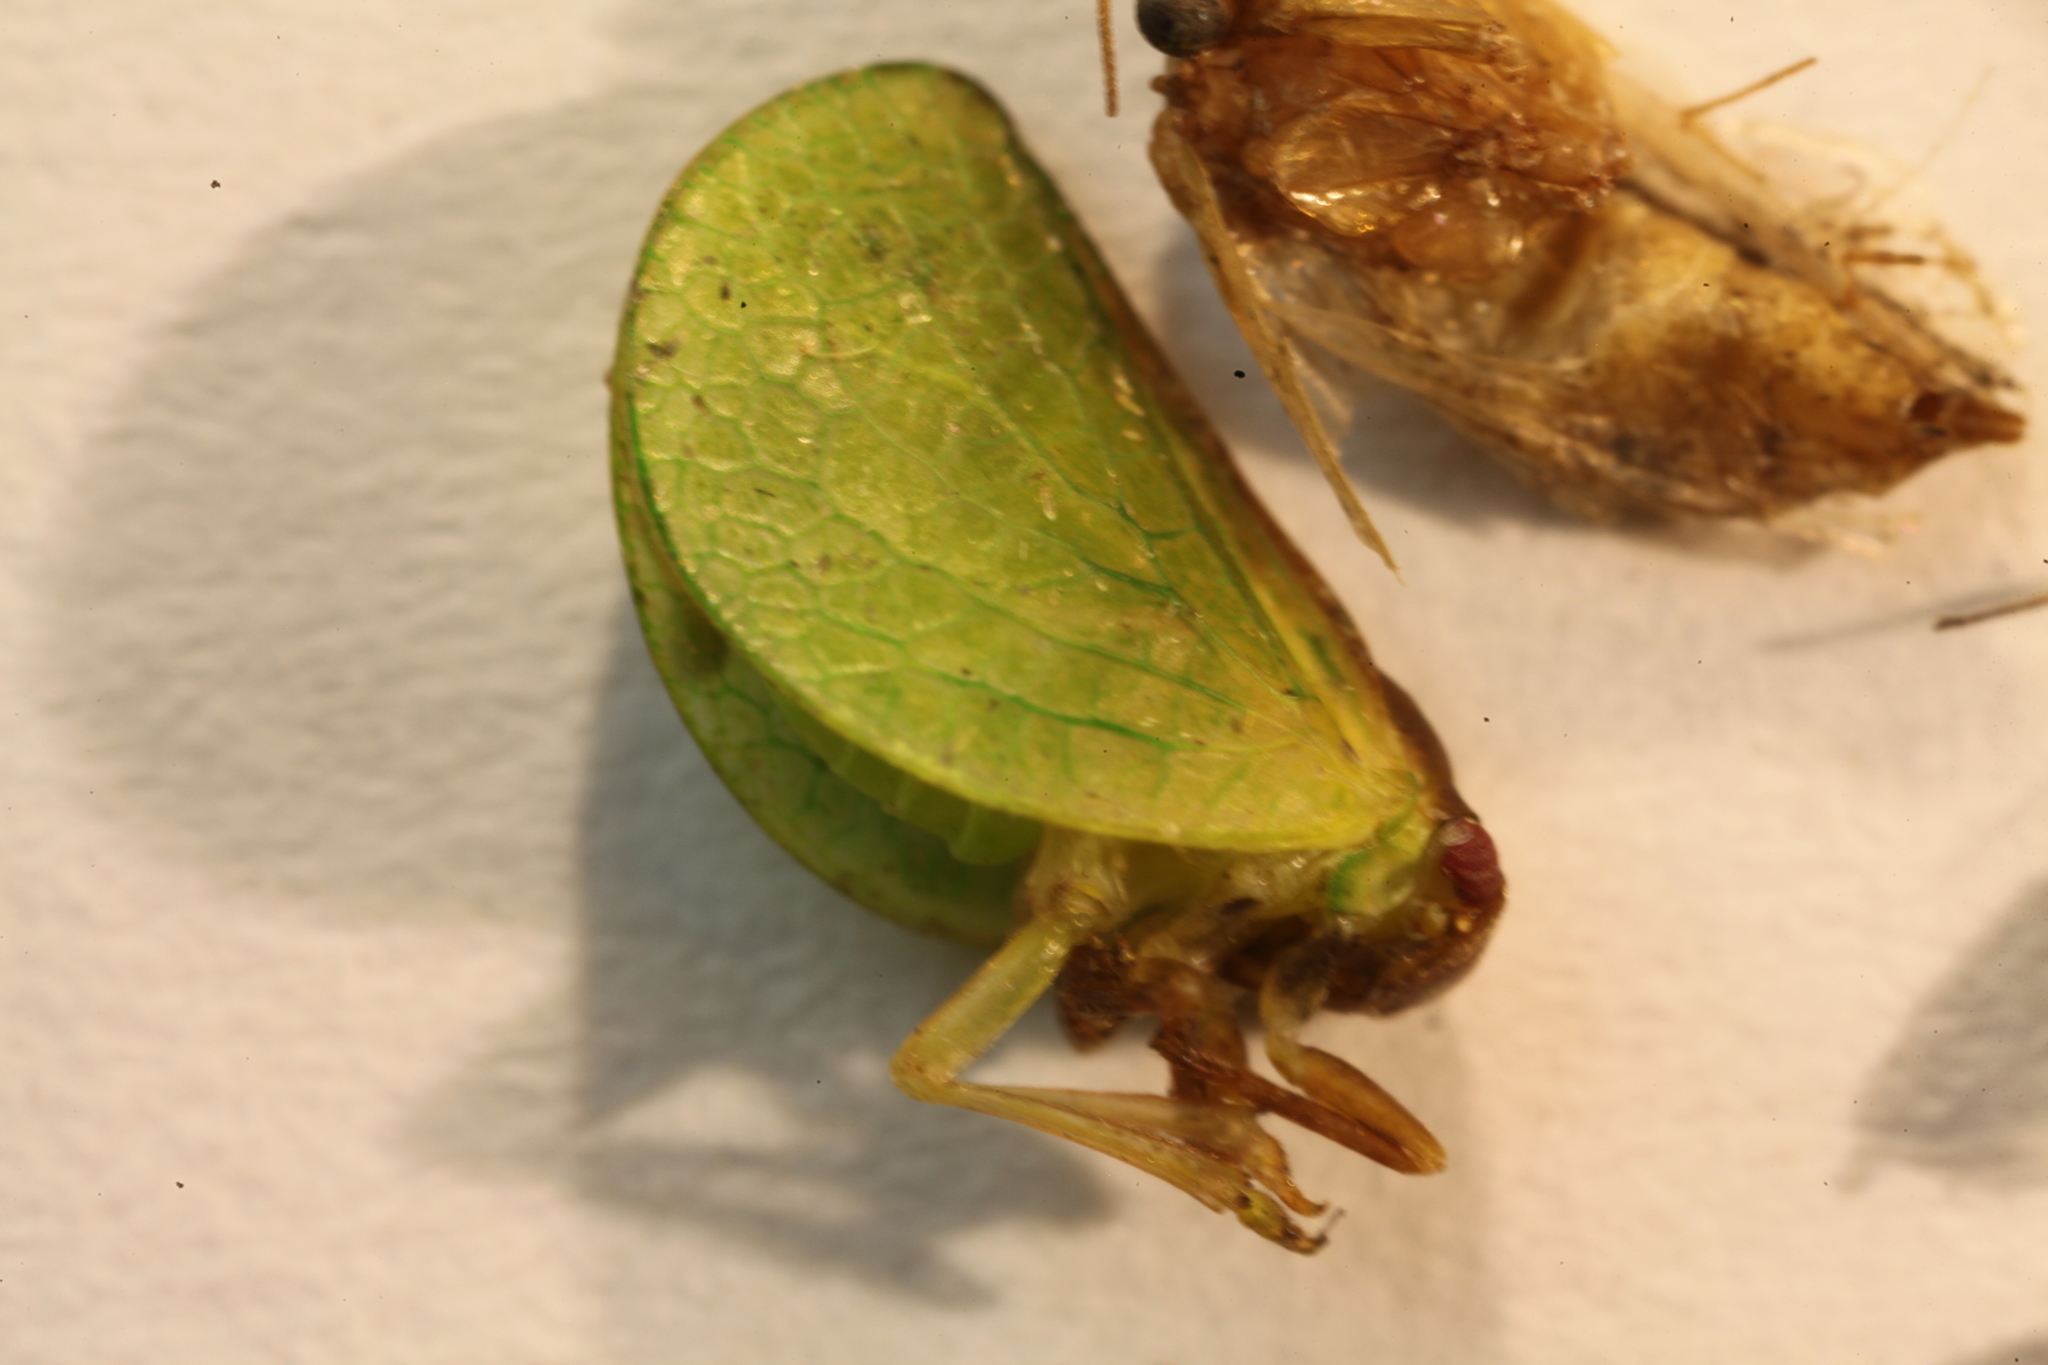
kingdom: Animalia
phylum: Arthropoda
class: Insecta
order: Hemiptera
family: Acanaloniidae
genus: Acanalonia
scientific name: Acanalonia bivittata
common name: Two-striped planthopper
